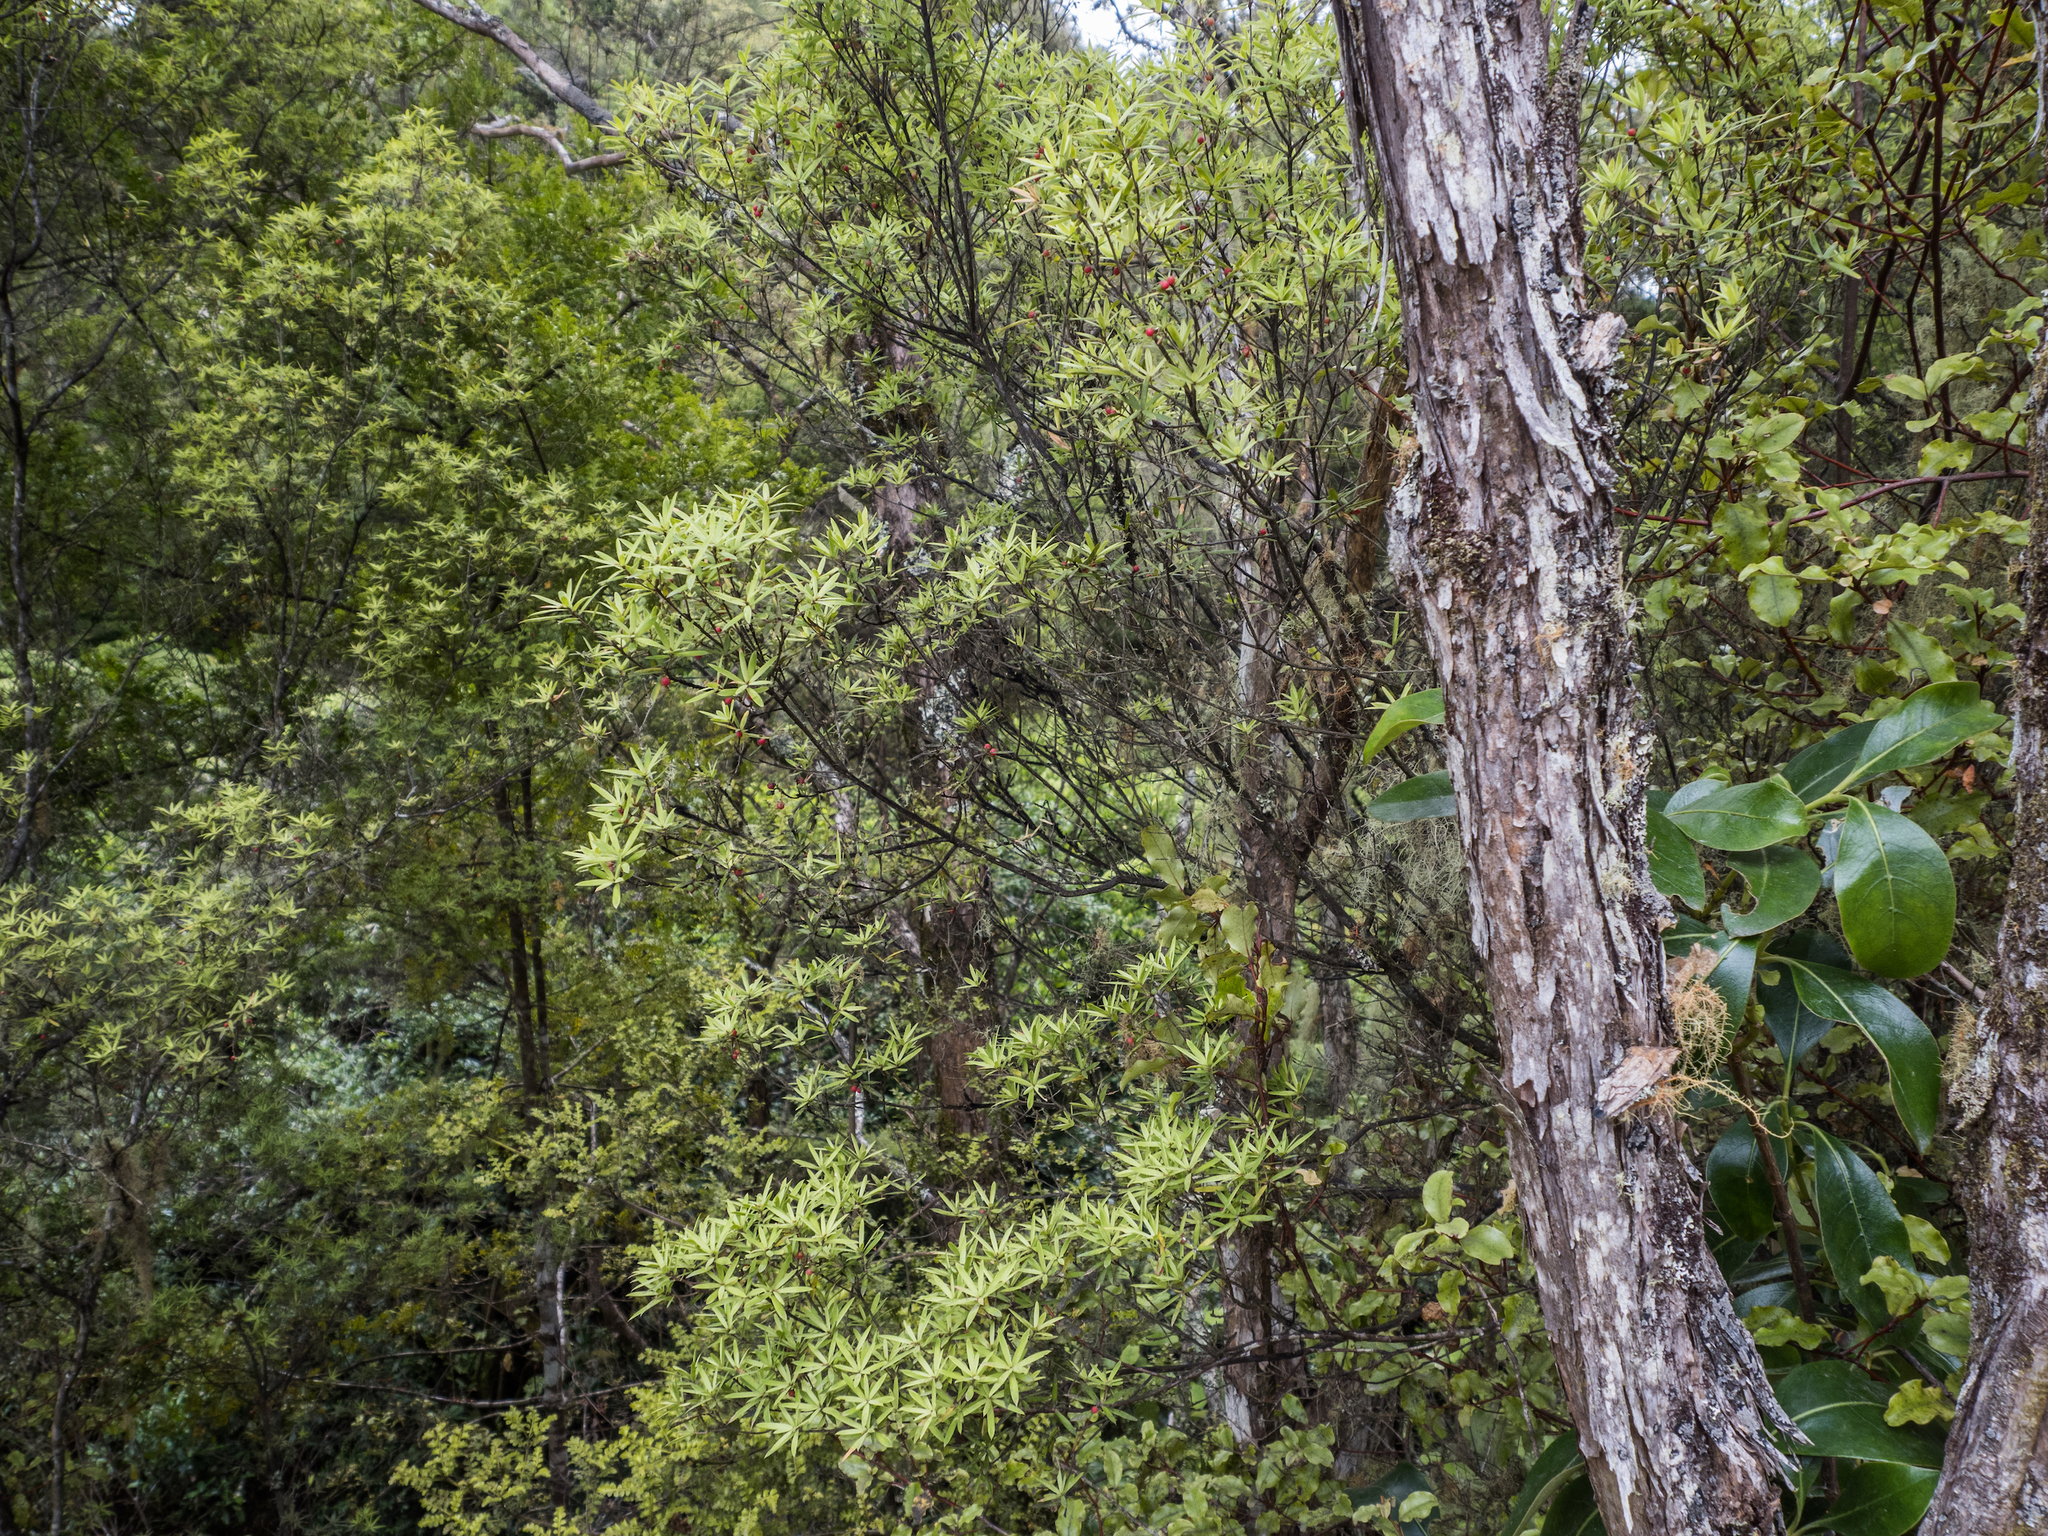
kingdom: Plantae
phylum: Tracheophyta
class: Magnoliopsida
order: Ericales
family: Ericaceae
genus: Leucopogon
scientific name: Leucopogon fasciculatus
